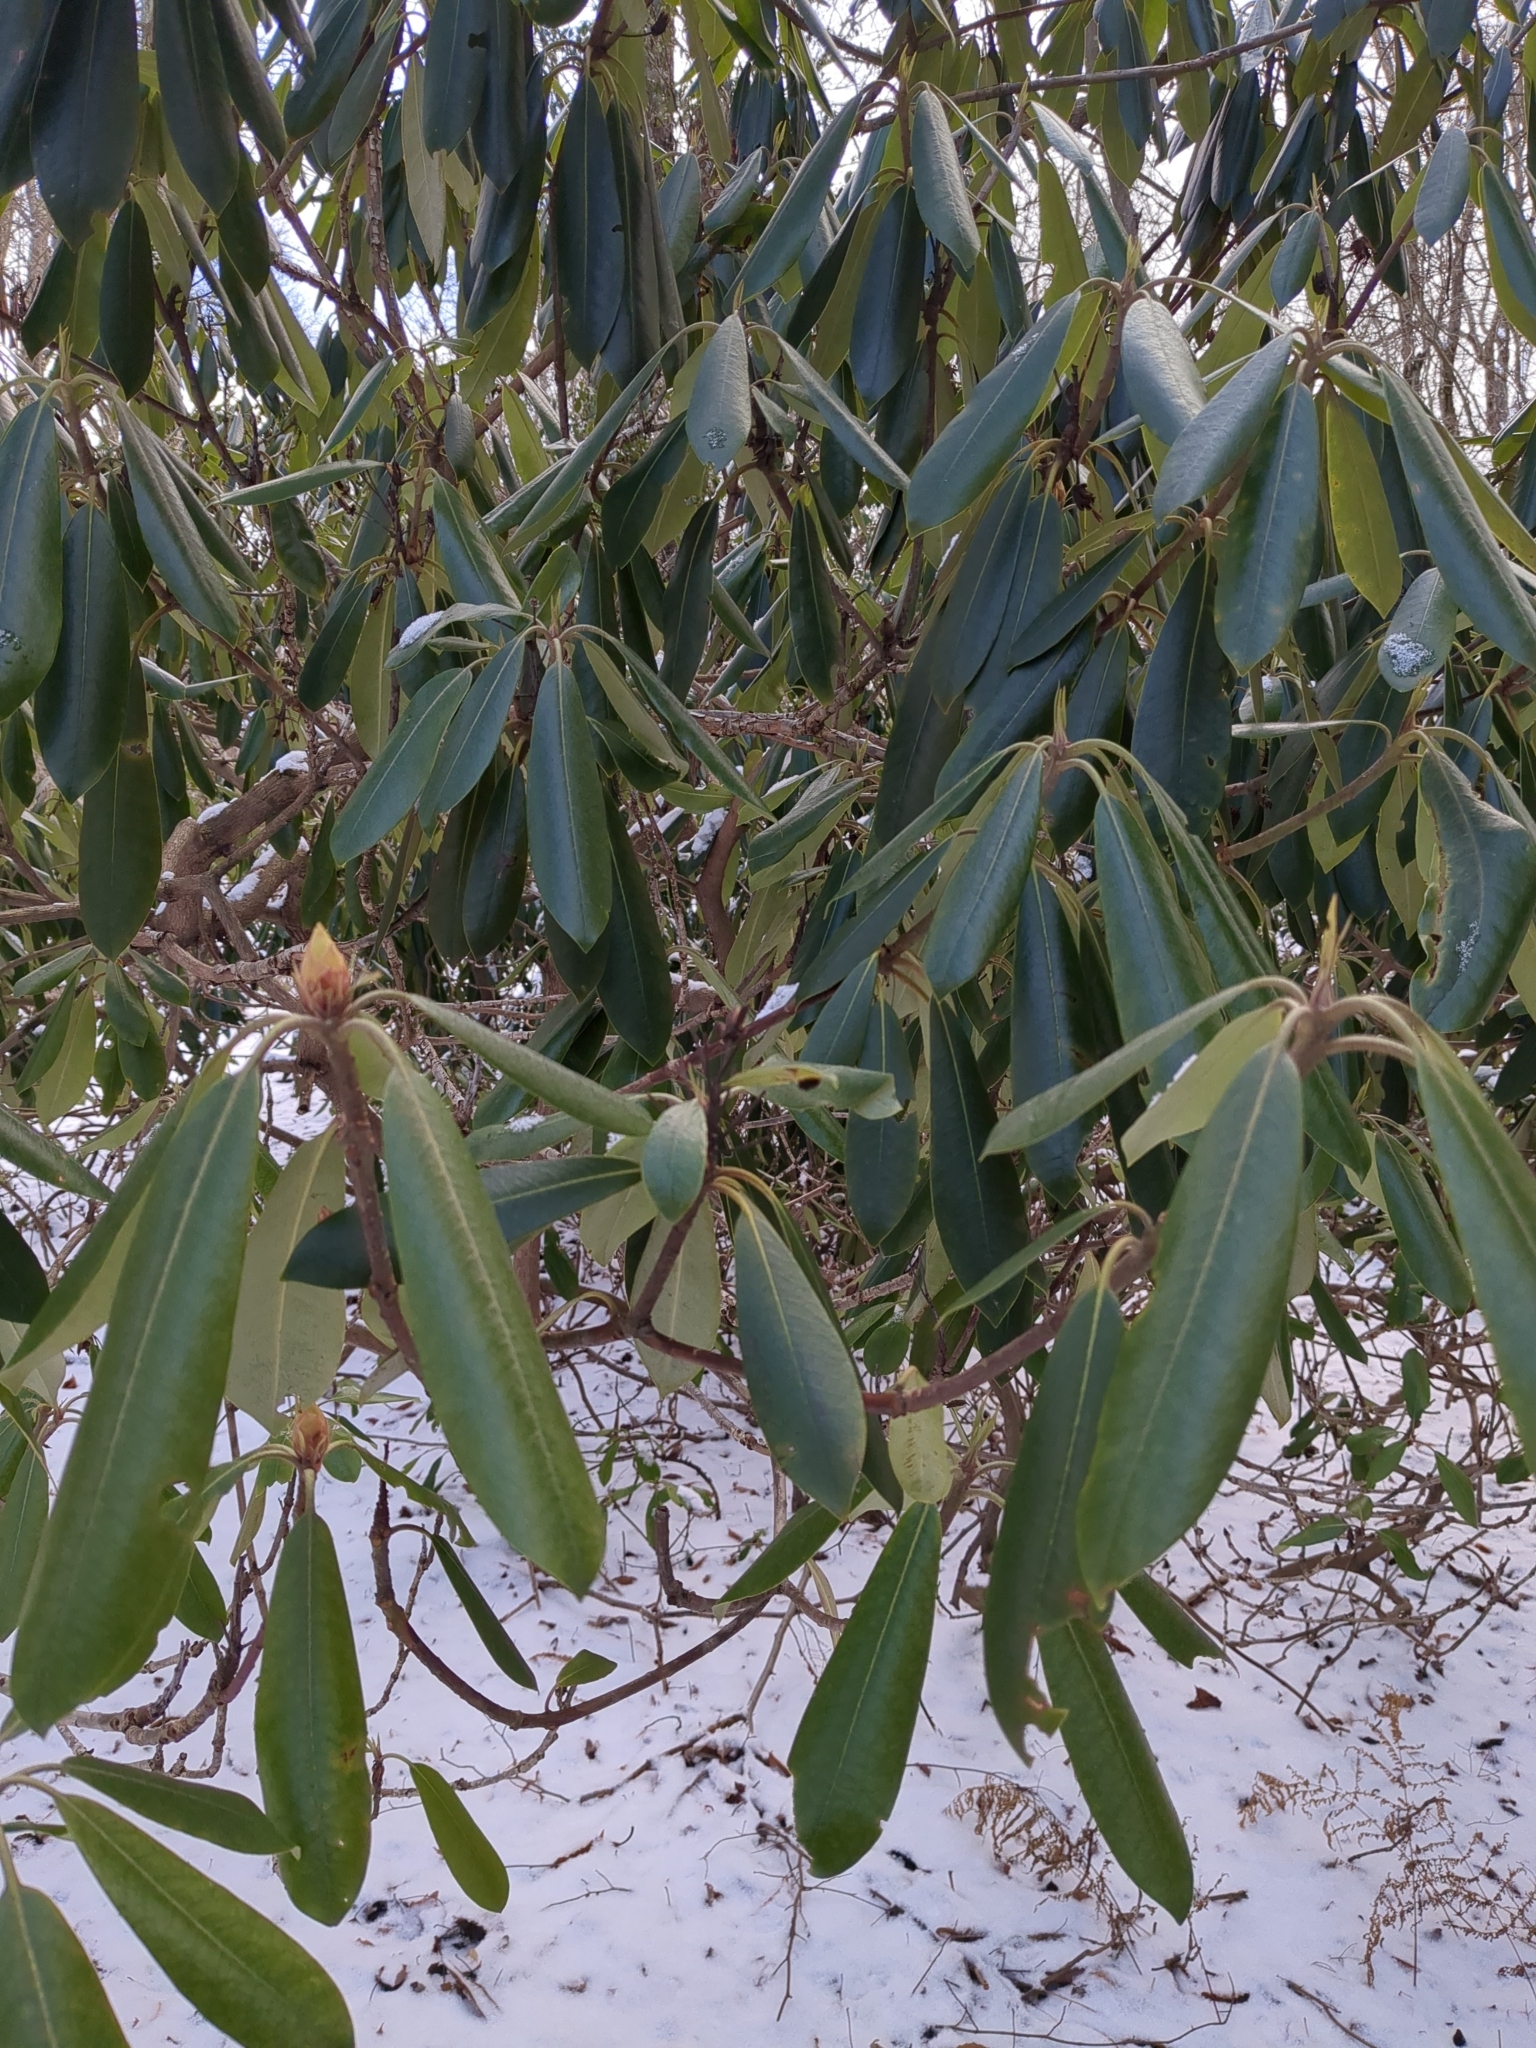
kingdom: Plantae
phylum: Tracheophyta
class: Magnoliopsida
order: Ericales
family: Ericaceae
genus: Rhododendron
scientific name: Rhododendron maximum
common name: Great rhododendron
